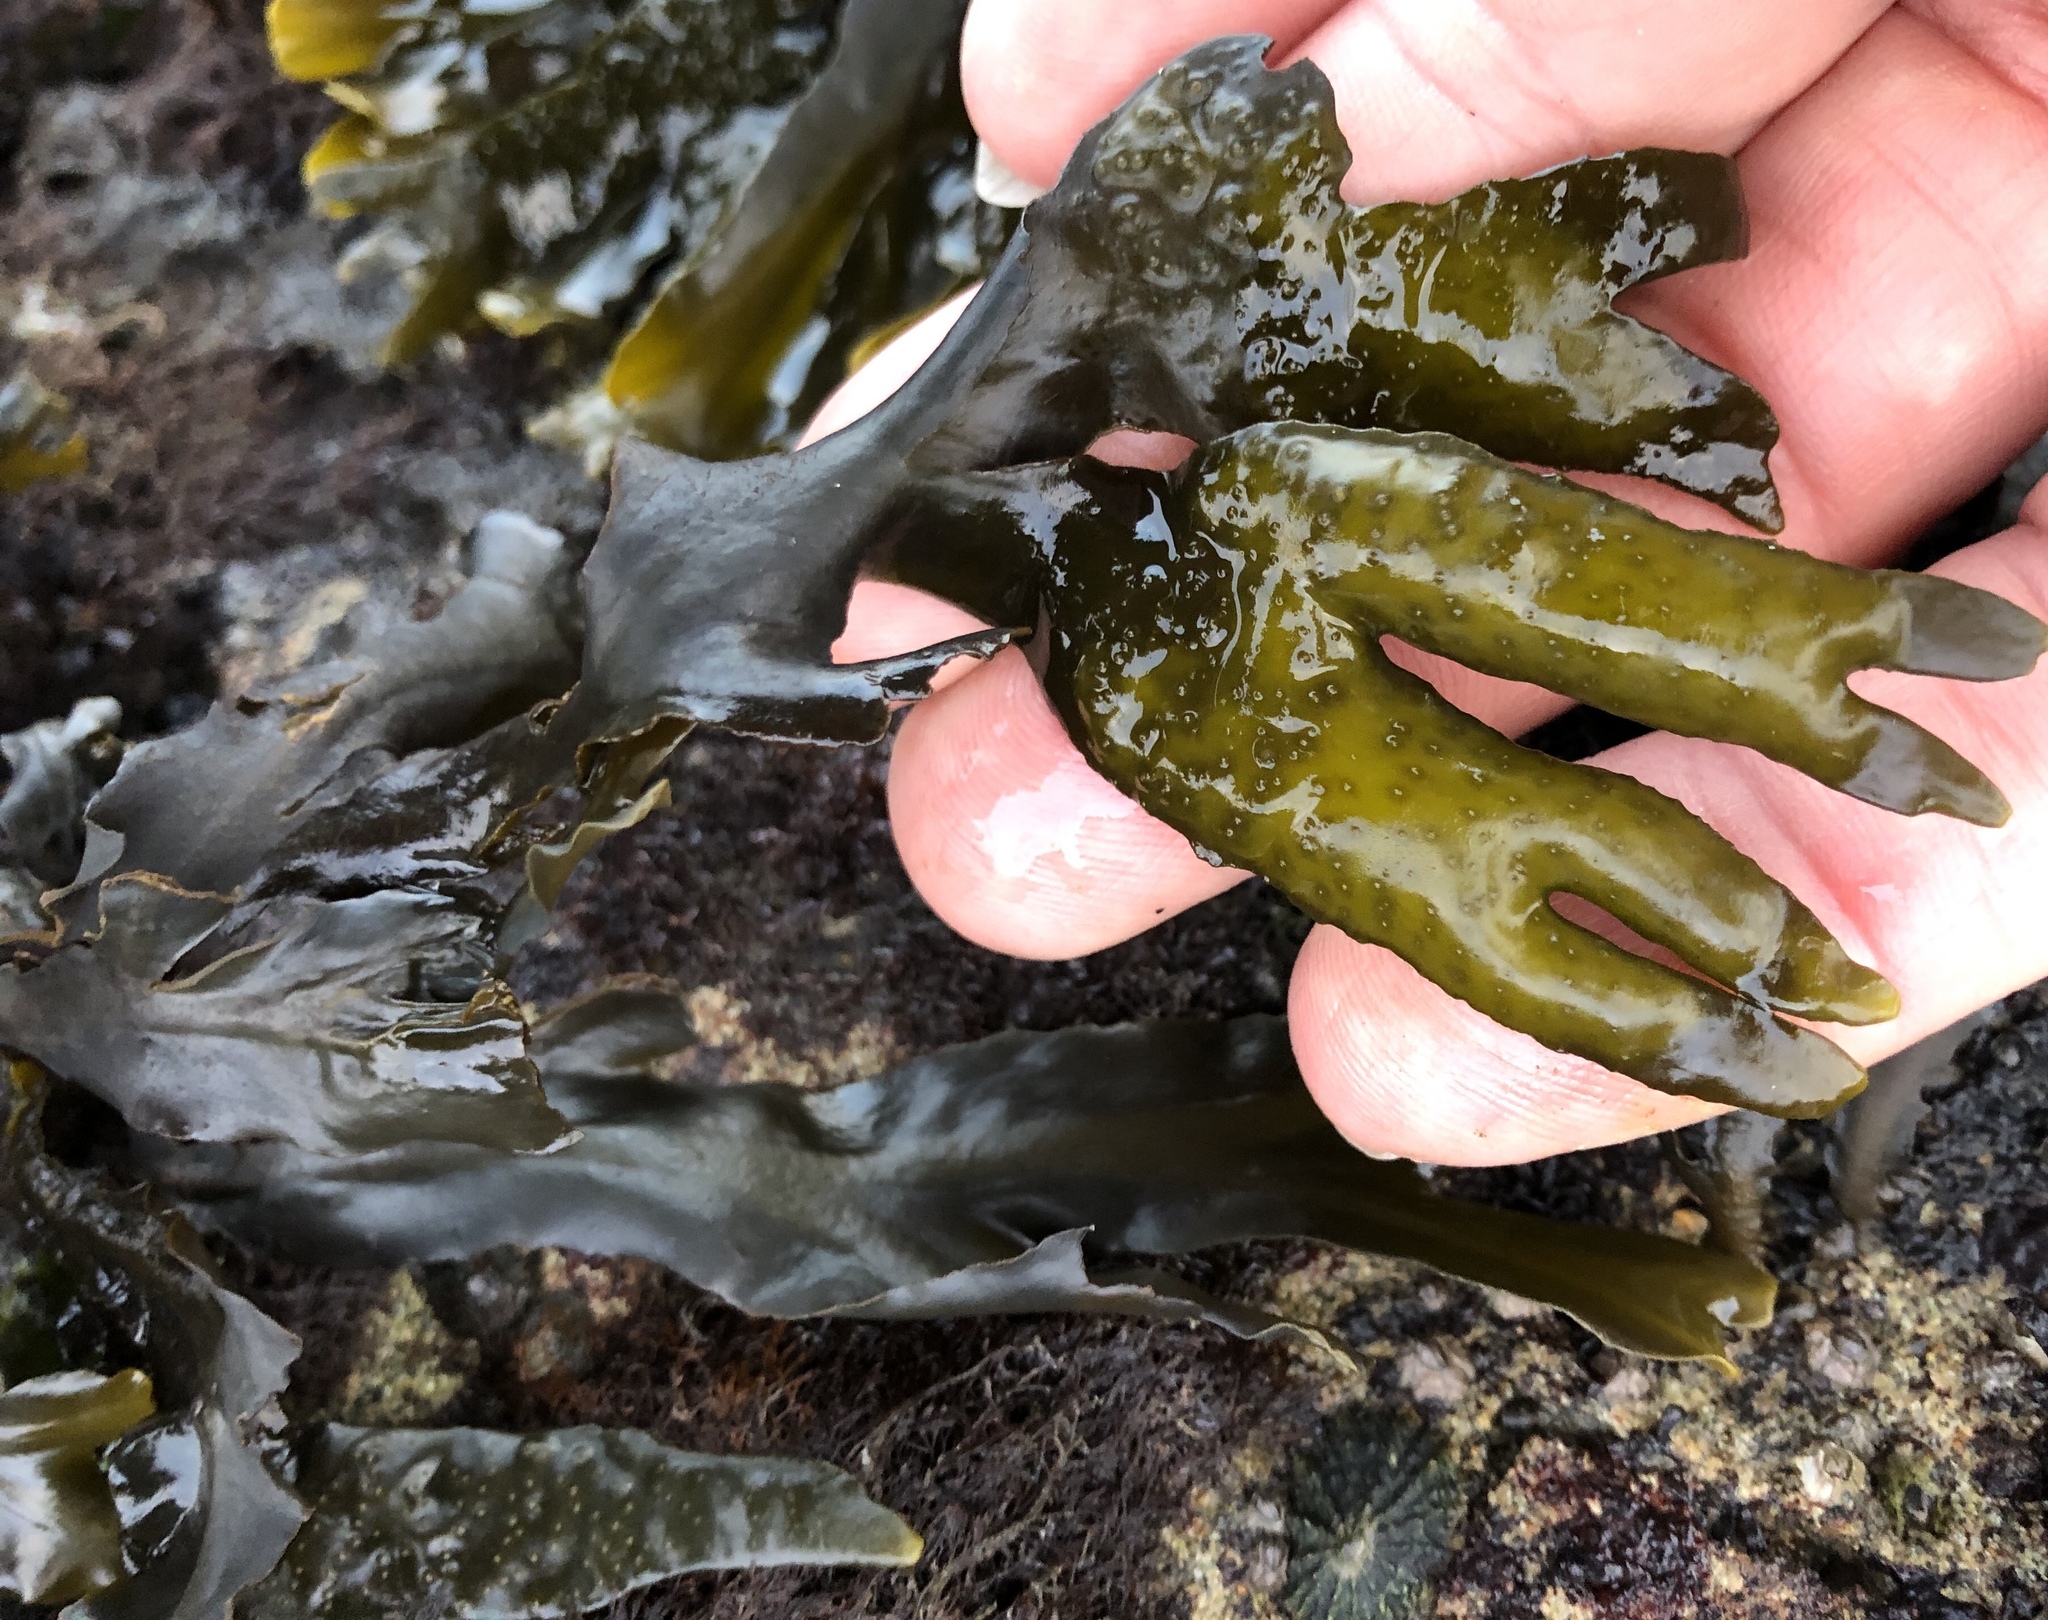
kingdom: Chromista
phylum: Ochrophyta
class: Phaeophyceae
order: Fucales
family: Fucaceae
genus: Fucus
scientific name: Fucus distichus
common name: Rockweed
